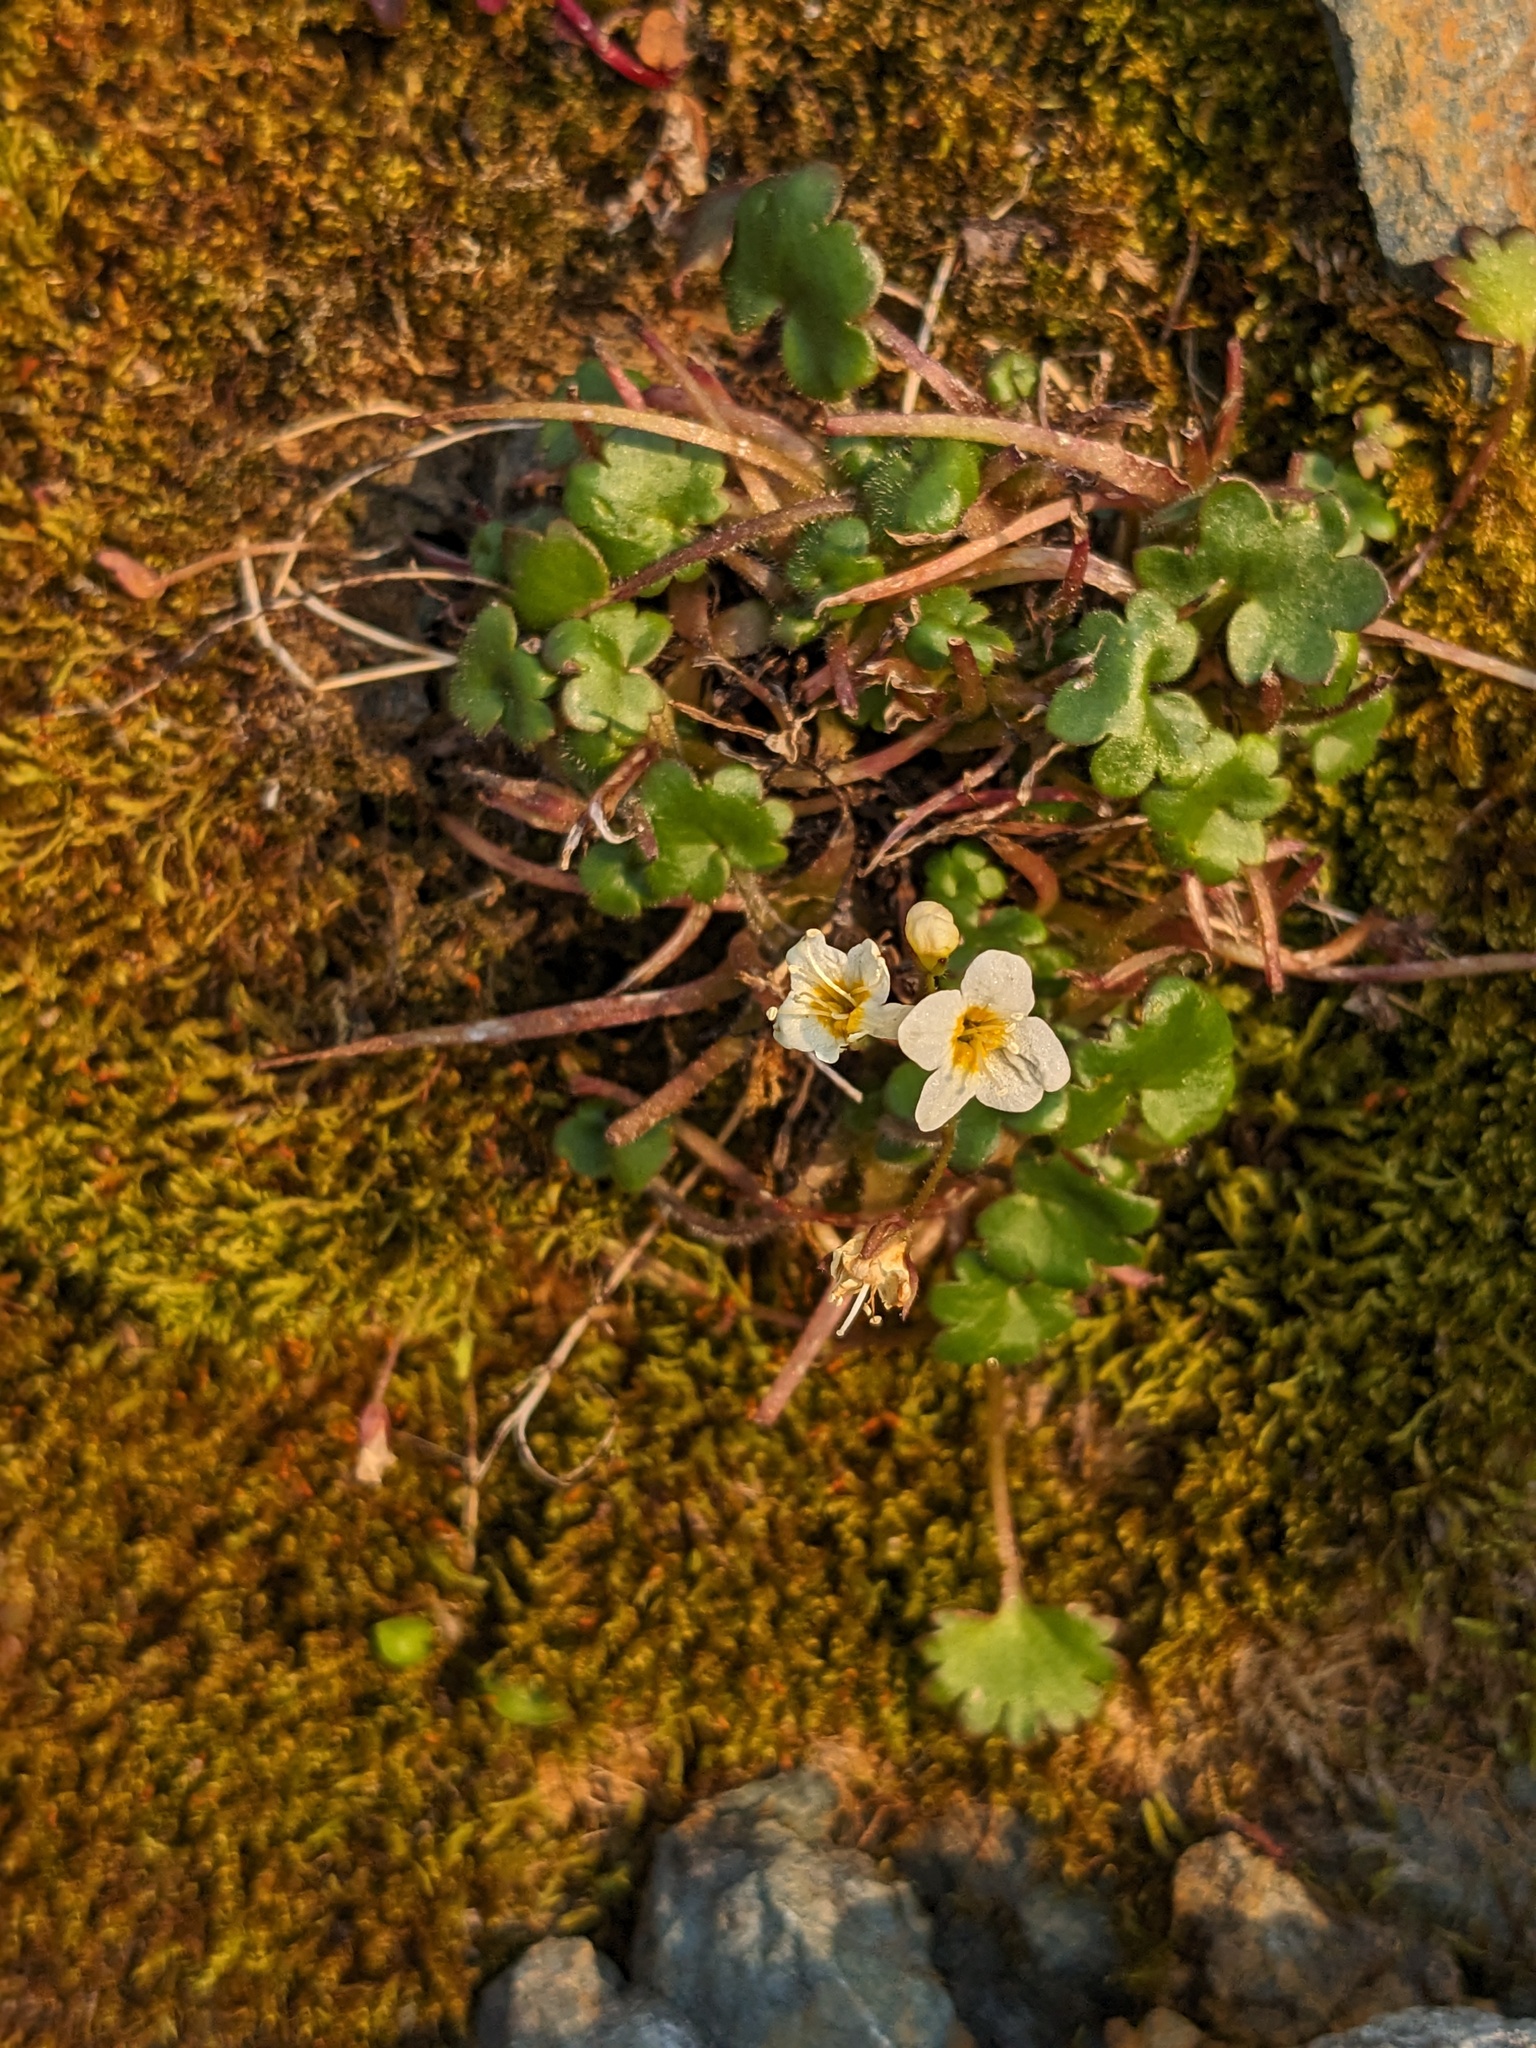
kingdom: Plantae
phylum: Tracheophyta
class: Magnoliopsida
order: Boraginales
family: Hydrophyllaceae
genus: Romanzoffia
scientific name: Romanzoffia sitchensis
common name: Sitka mistmaid
